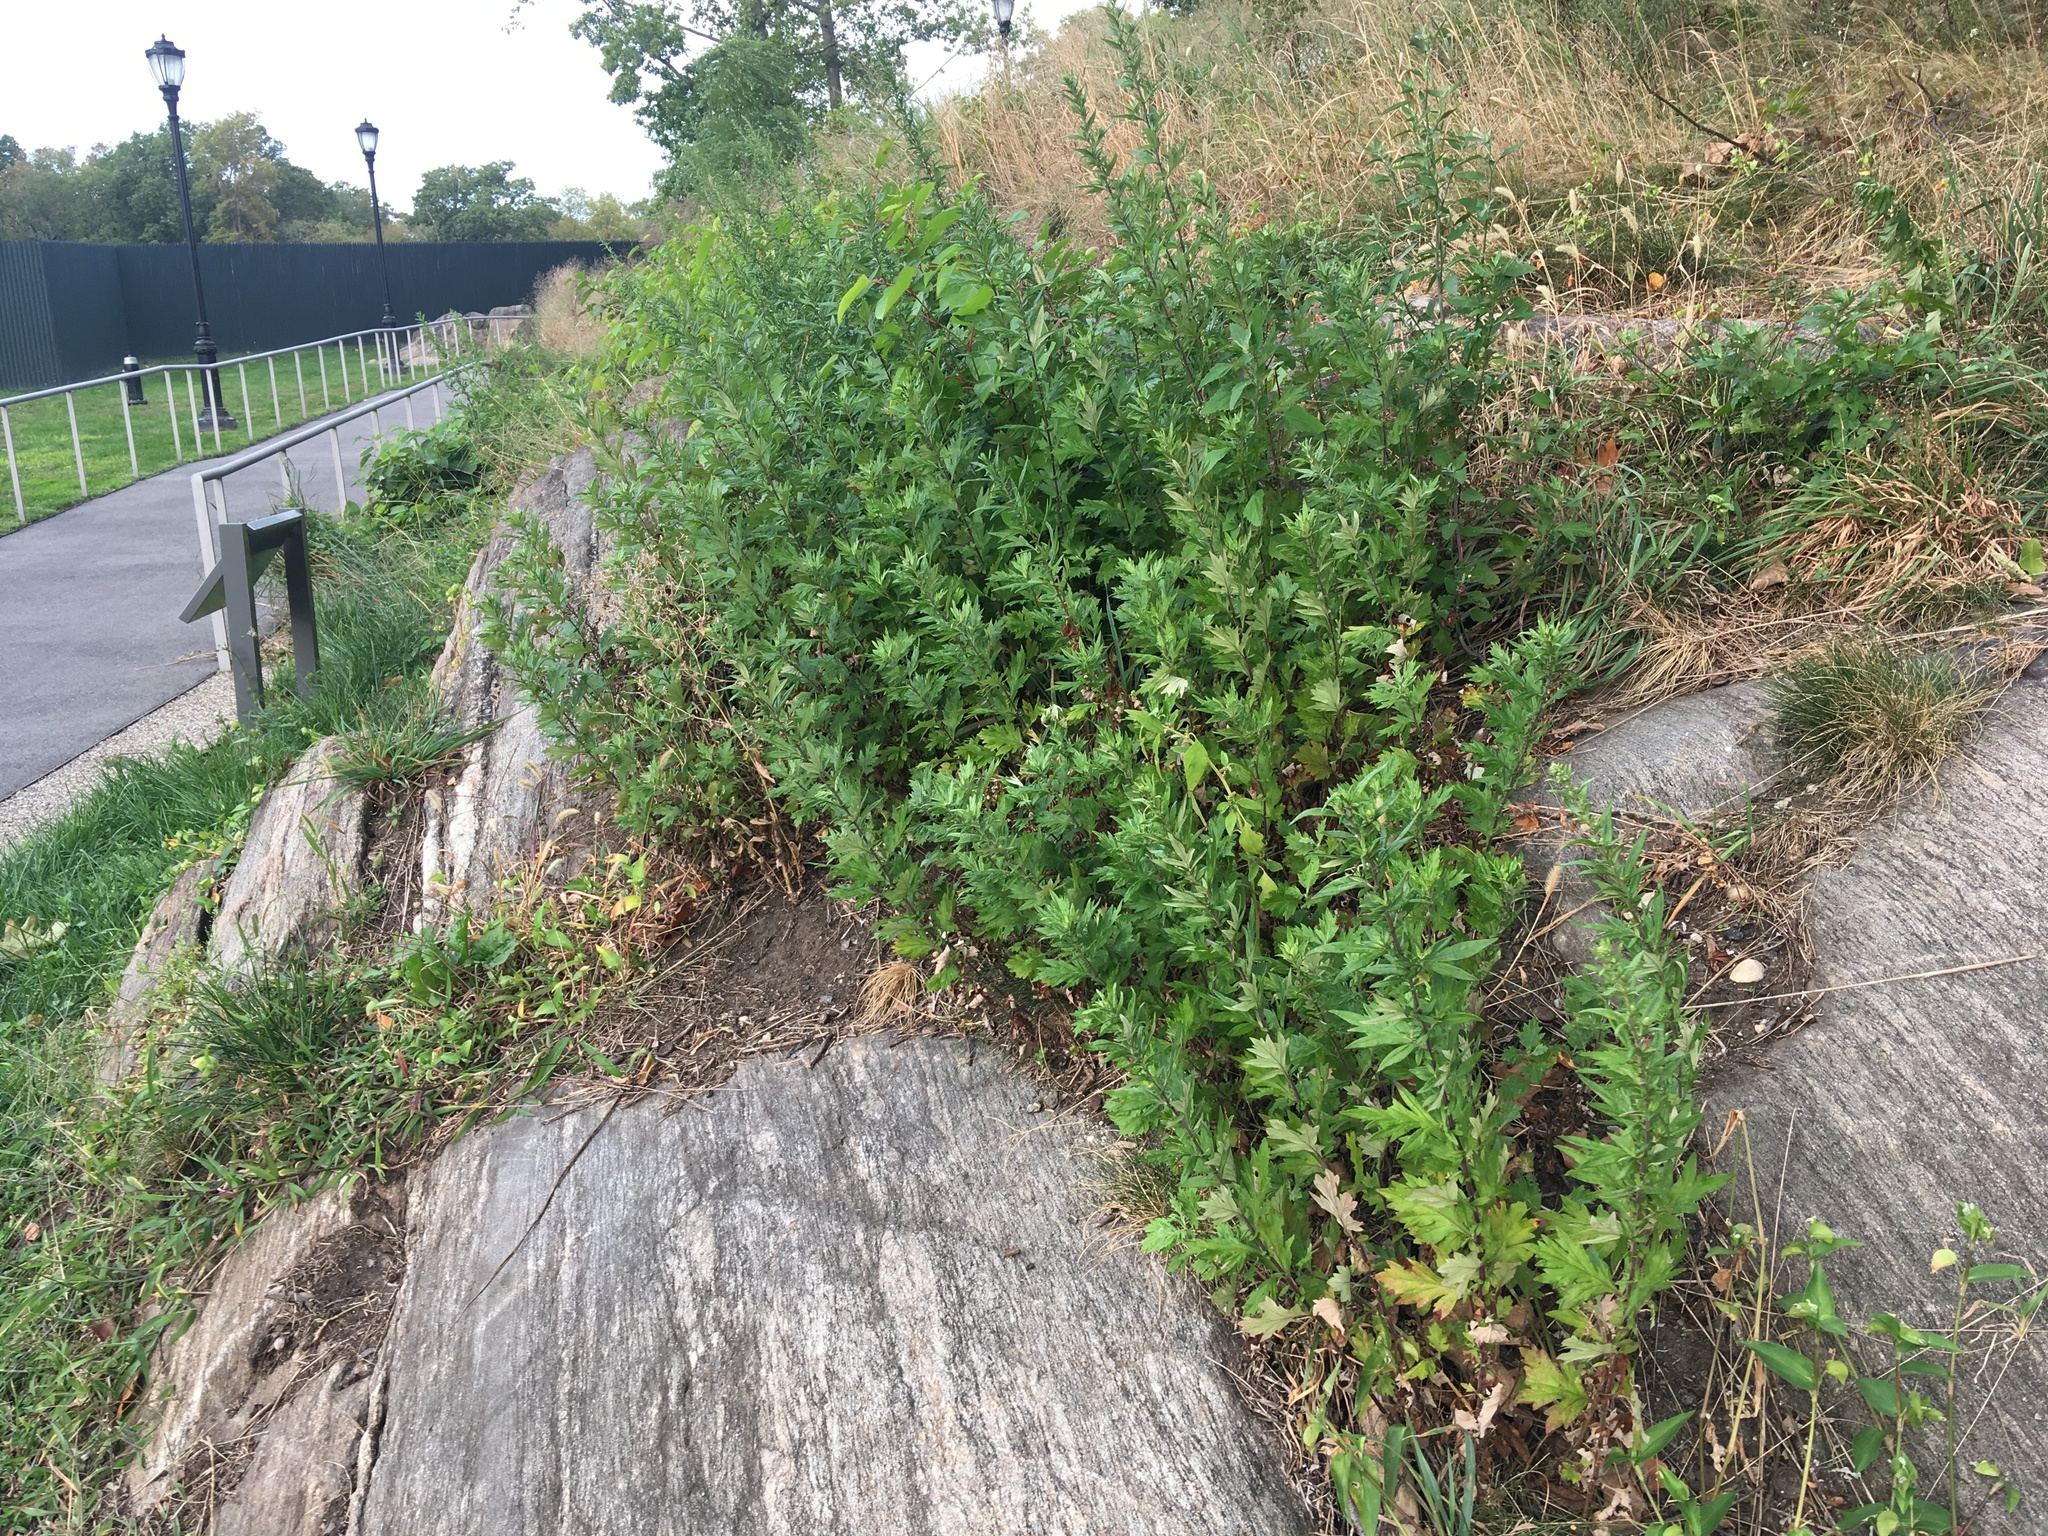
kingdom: Plantae
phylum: Tracheophyta
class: Magnoliopsida
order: Asterales
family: Asteraceae
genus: Artemisia
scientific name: Artemisia vulgaris
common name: Mugwort
